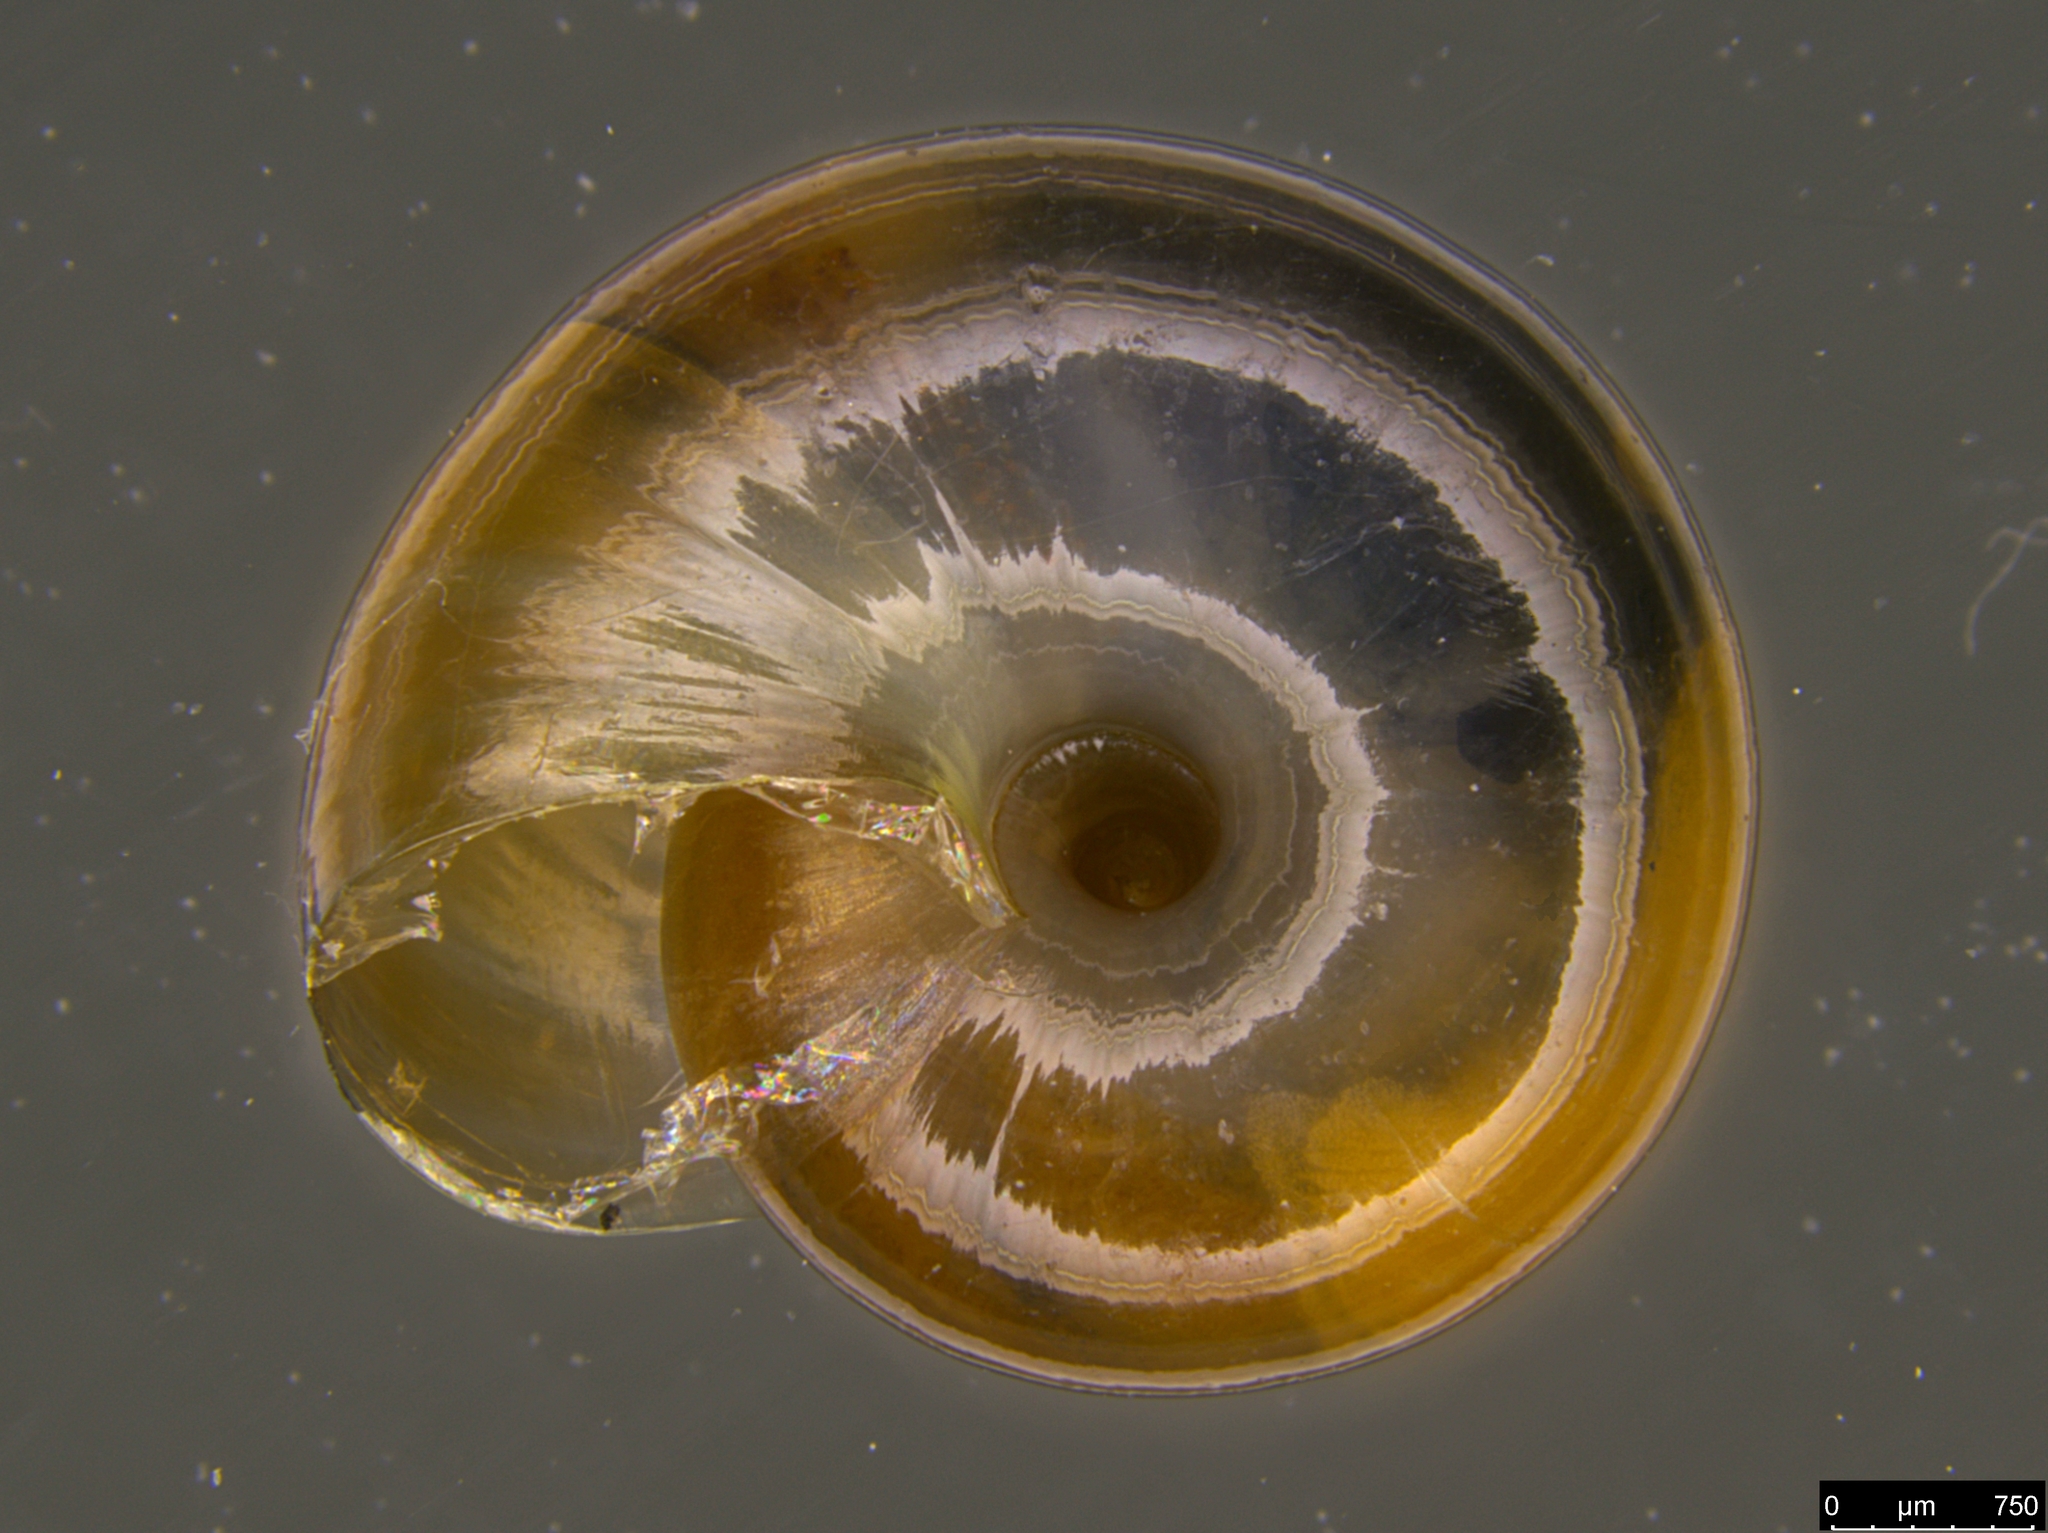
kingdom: Animalia
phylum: Mollusca
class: Gastropoda
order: Stylommatophora
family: Oxychilidae
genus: Oxychilus
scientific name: Oxychilus alliarius
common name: Garlic glass-snail
